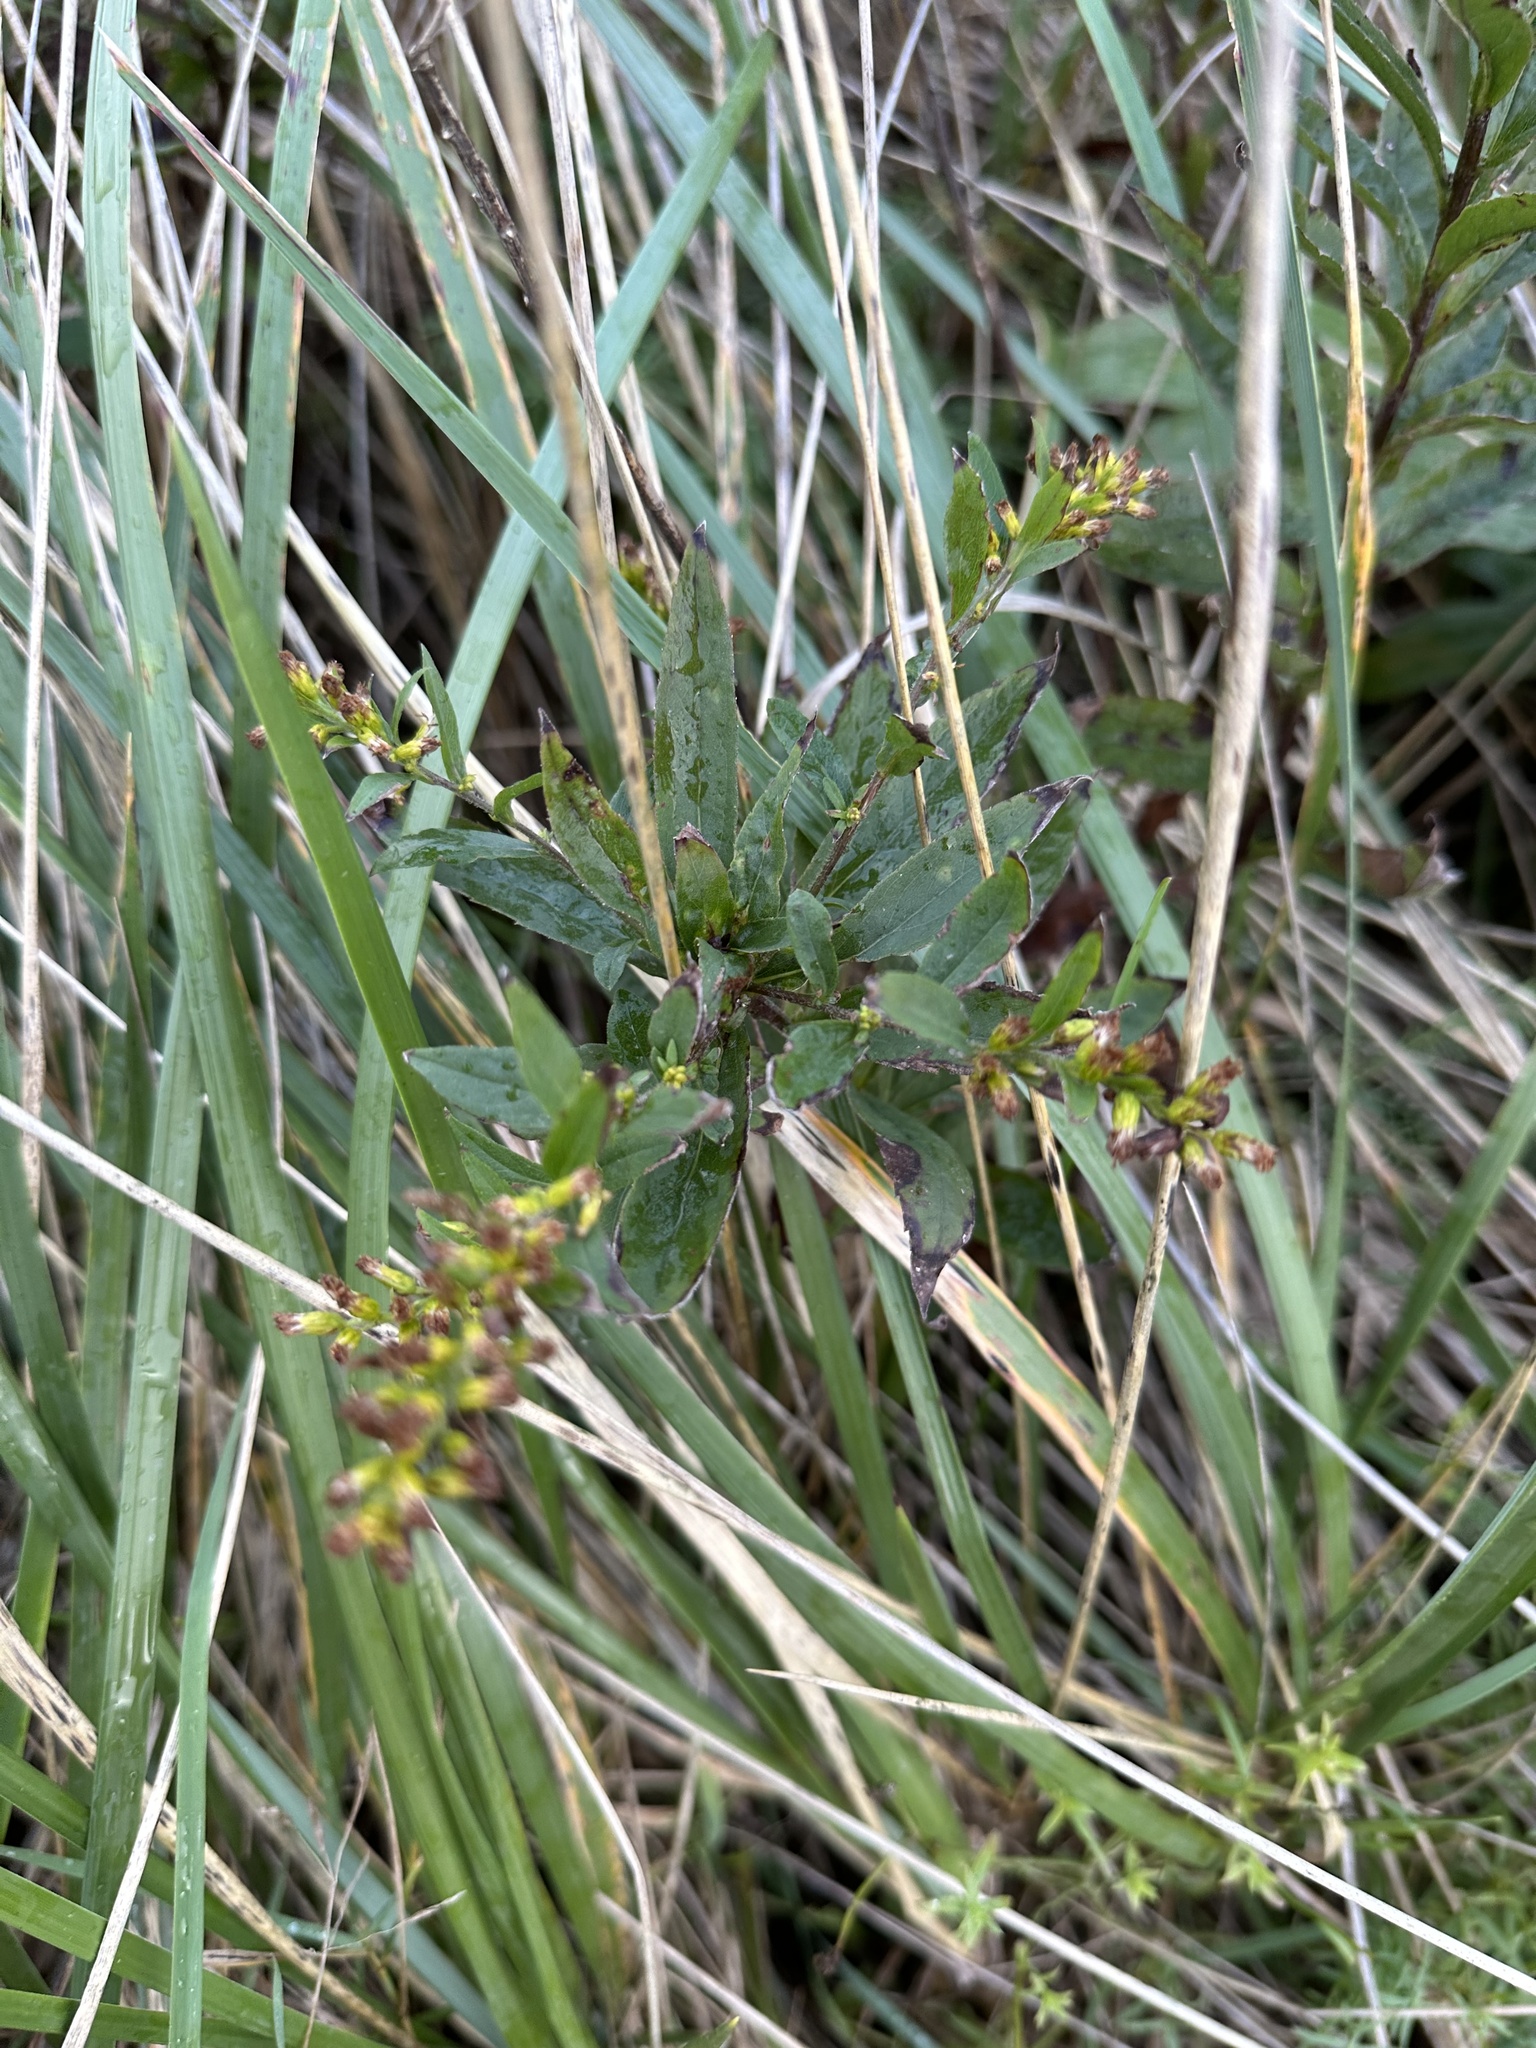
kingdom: Plantae
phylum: Tracheophyta
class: Magnoliopsida
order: Asterales
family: Asteraceae
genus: Solidago
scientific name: Solidago rugosa
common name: Rough-stemmed goldenrod
